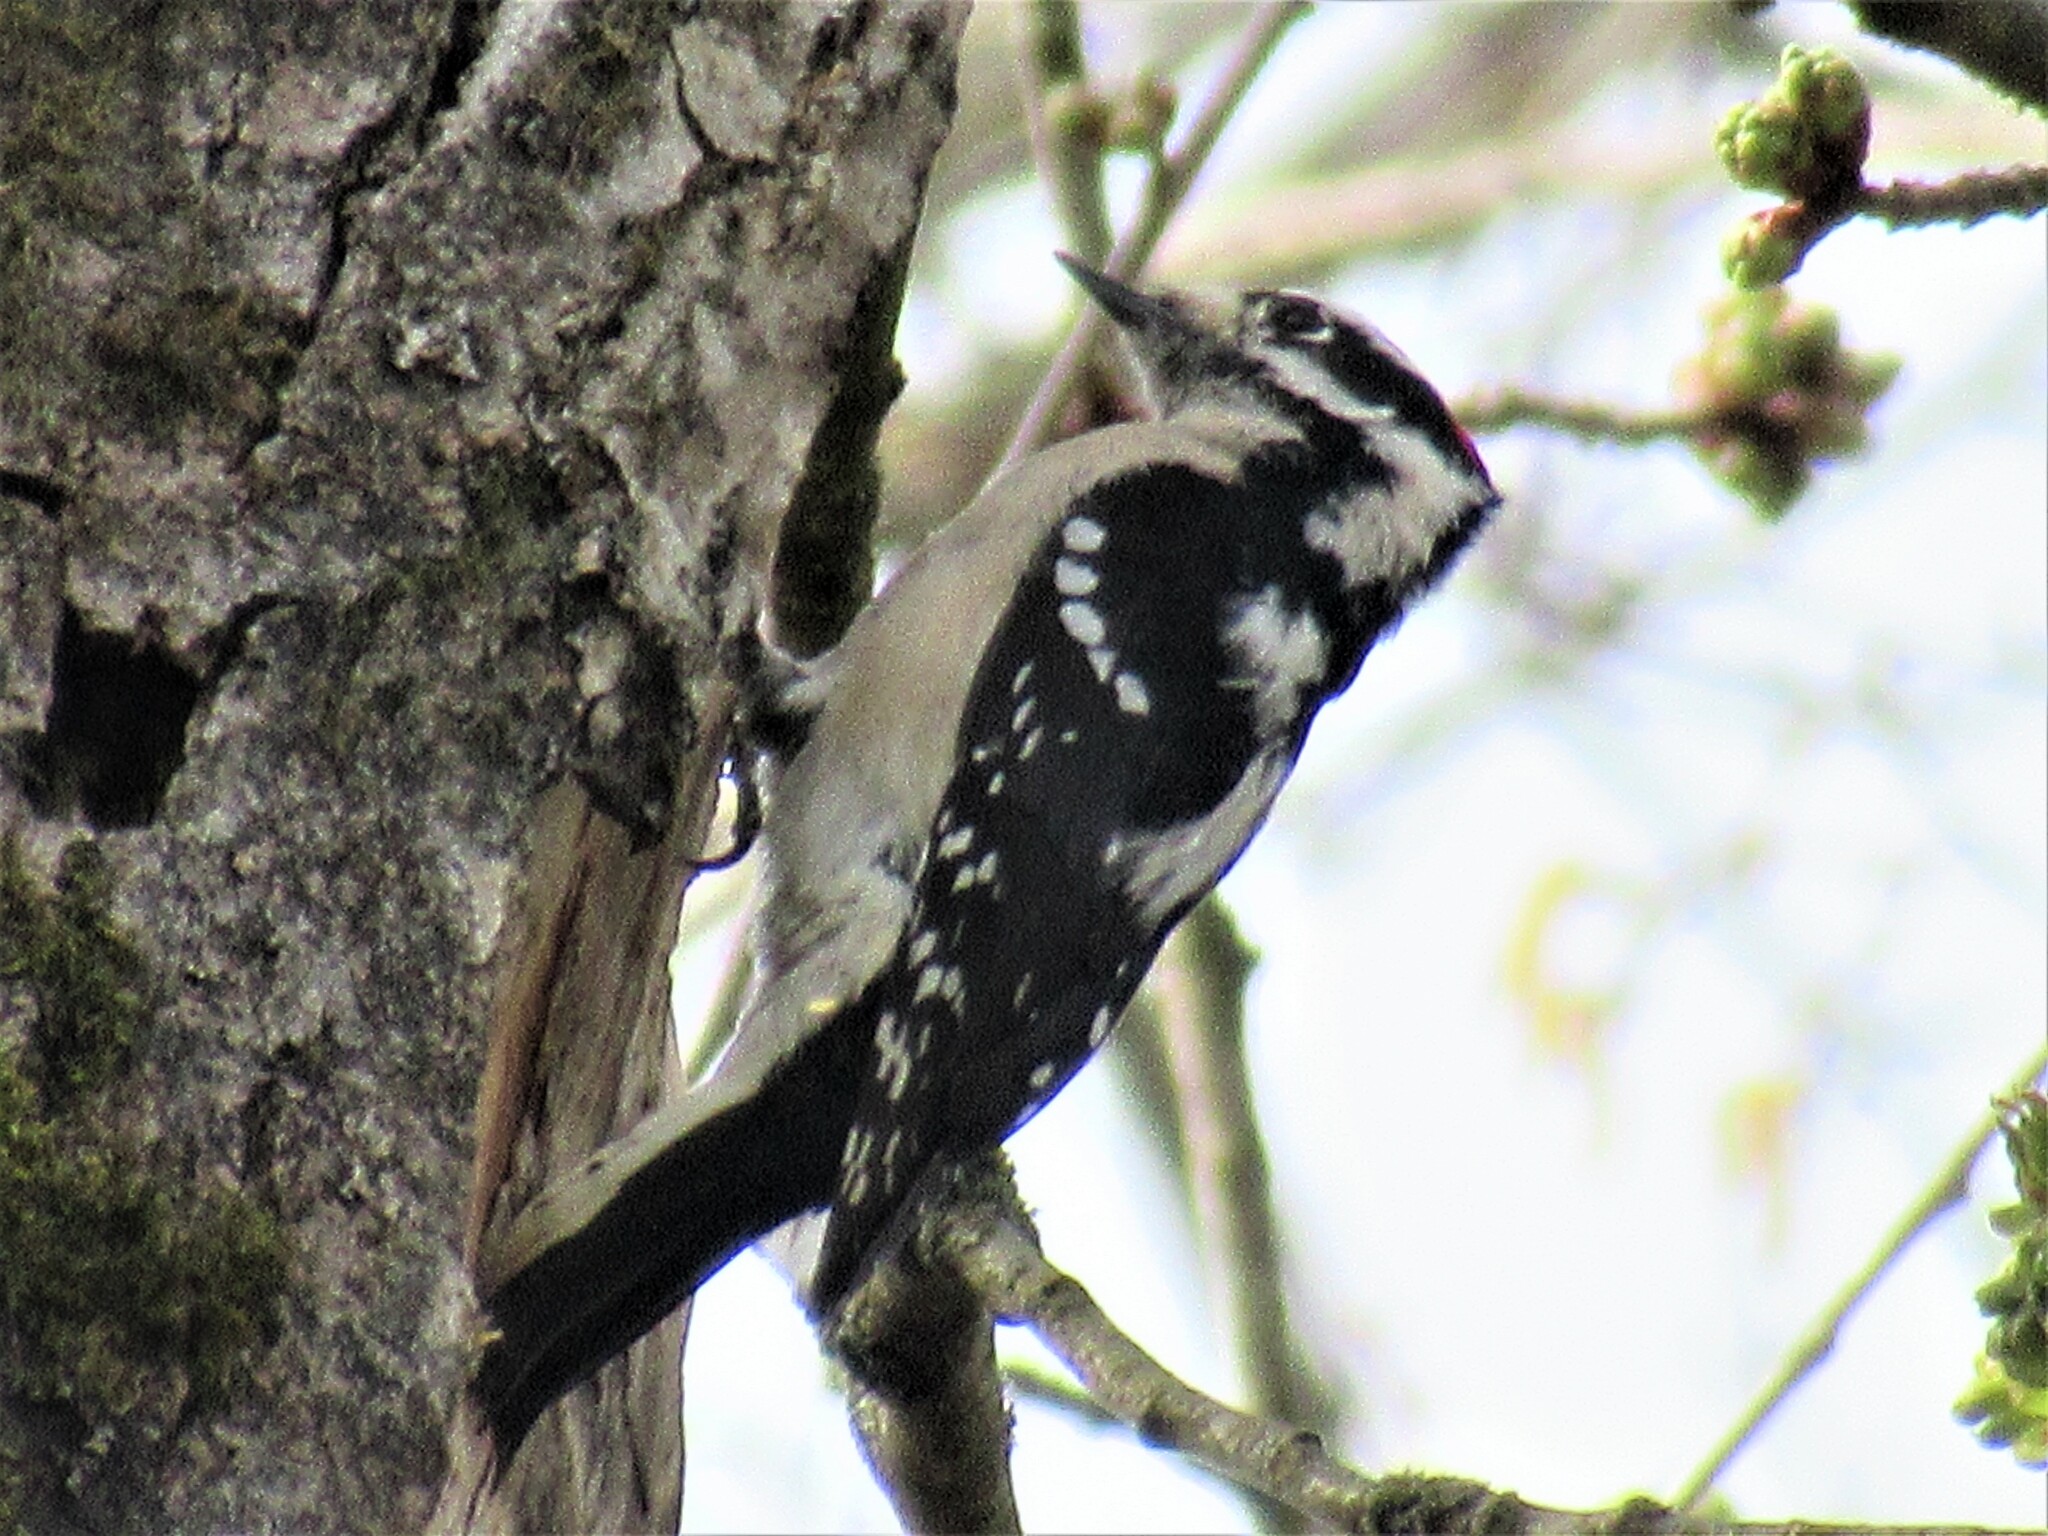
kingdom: Animalia
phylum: Chordata
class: Aves
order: Piciformes
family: Picidae
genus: Dryobates
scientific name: Dryobates pubescens
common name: Downy woodpecker
